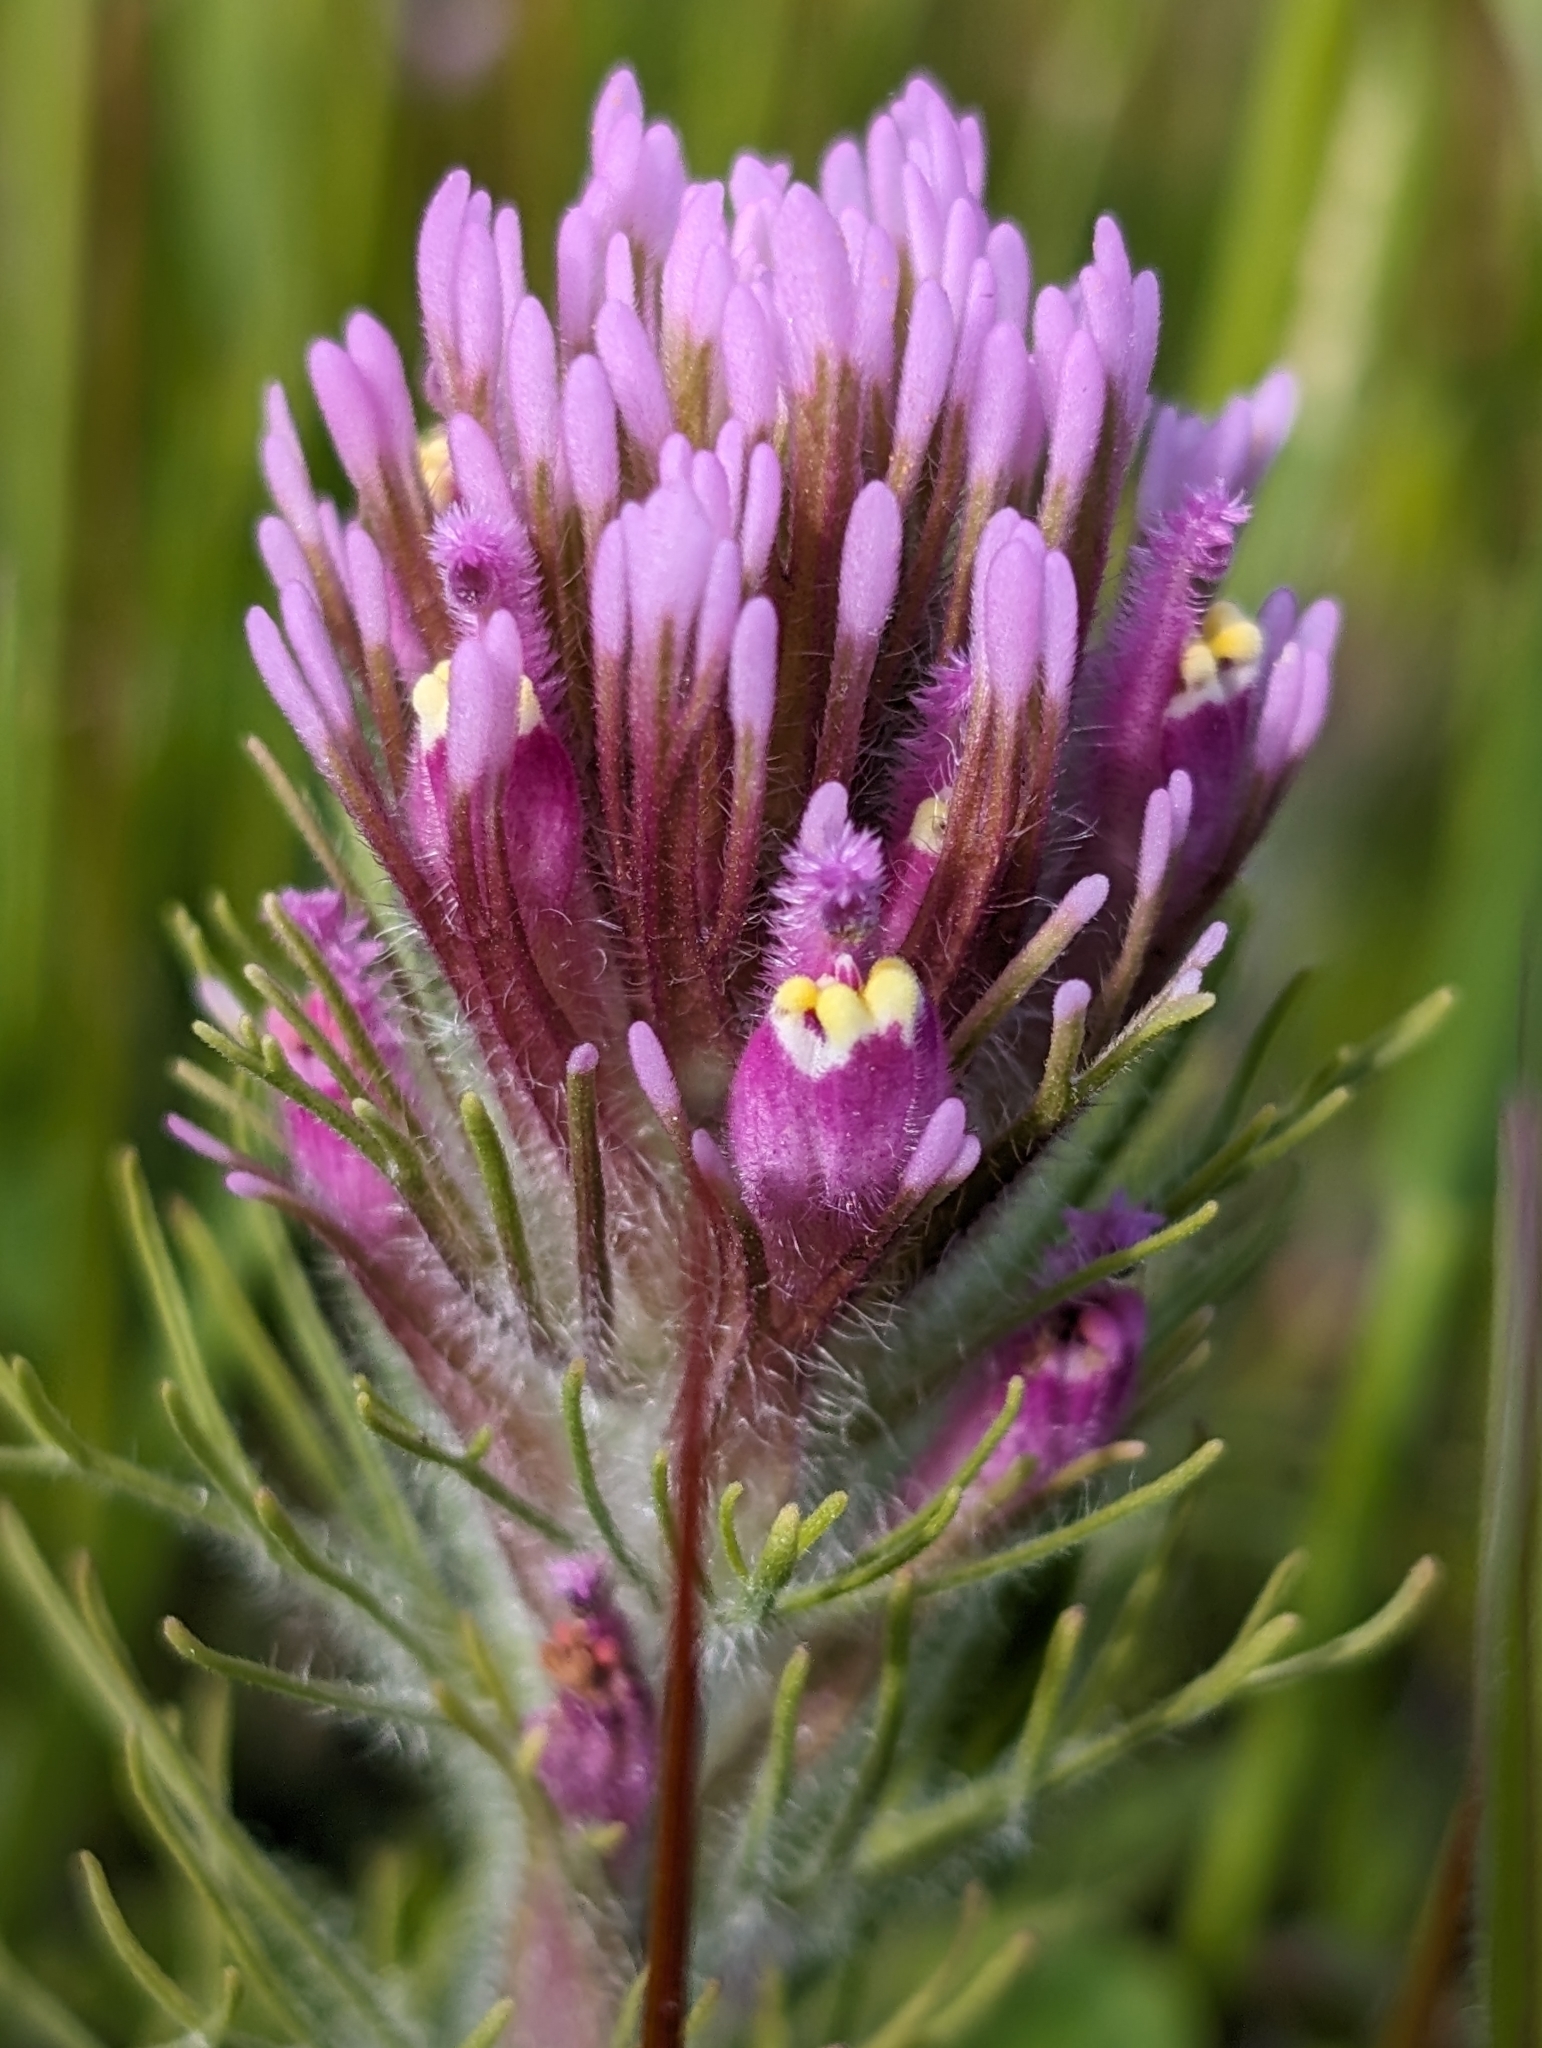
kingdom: Plantae
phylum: Tracheophyta
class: Magnoliopsida
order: Lamiales
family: Orobanchaceae
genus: Castilleja
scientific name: Castilleja exserta
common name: Purple owl-clover
